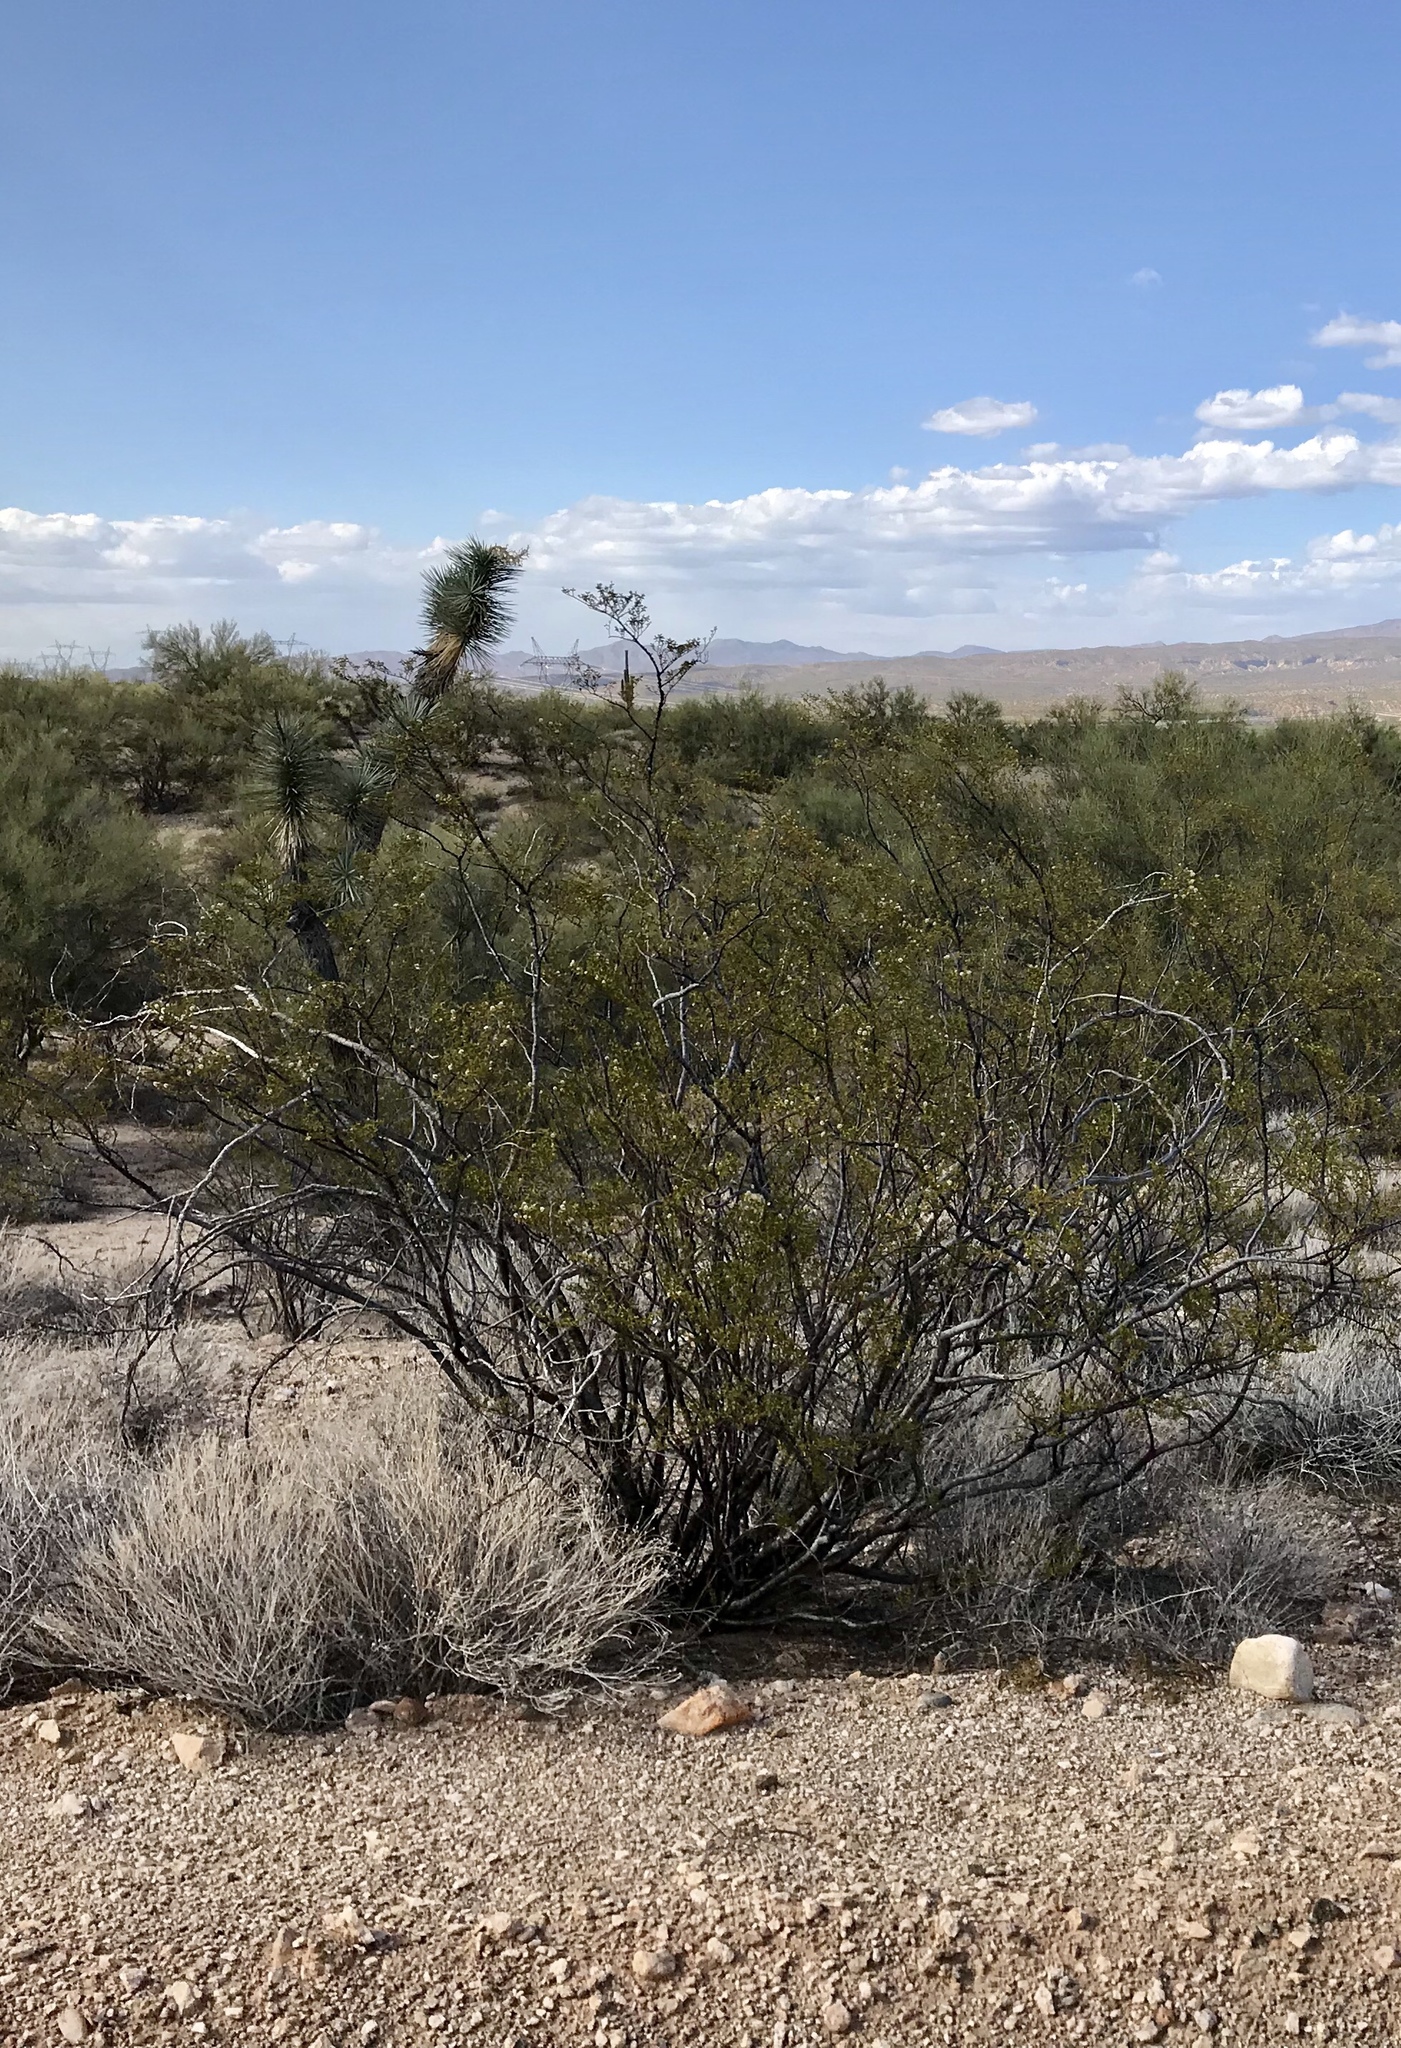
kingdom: Plantae
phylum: Tracheophyta
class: Magnoliopsida
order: Zygophyllales
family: Zygophyllaceae
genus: Larrea
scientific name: Larrea tridentata
